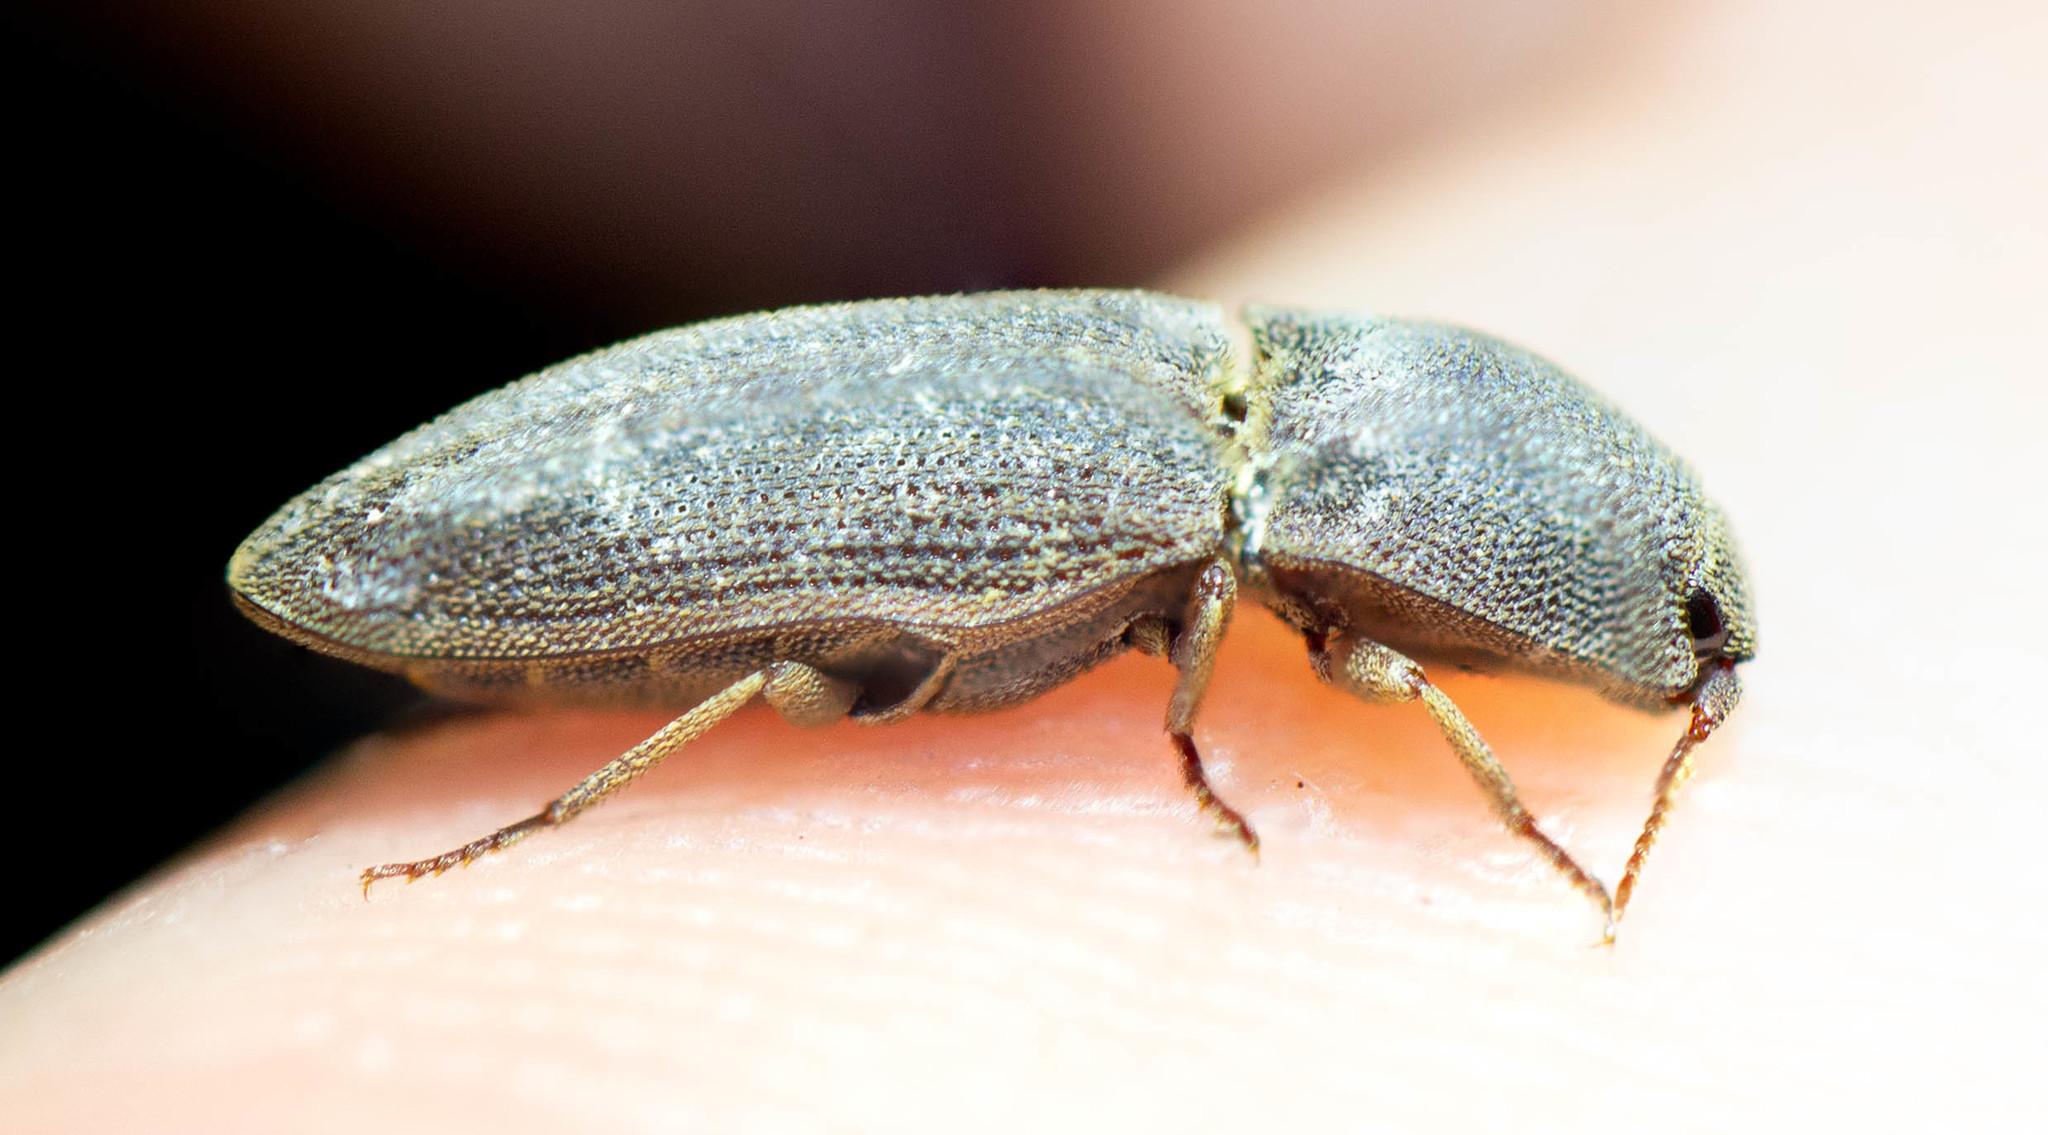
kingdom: Animalia
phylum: Arthropoda
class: Insecta
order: Coleoptera
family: Elateridae
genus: Agrypnus
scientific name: Agrypnus rectangularis
